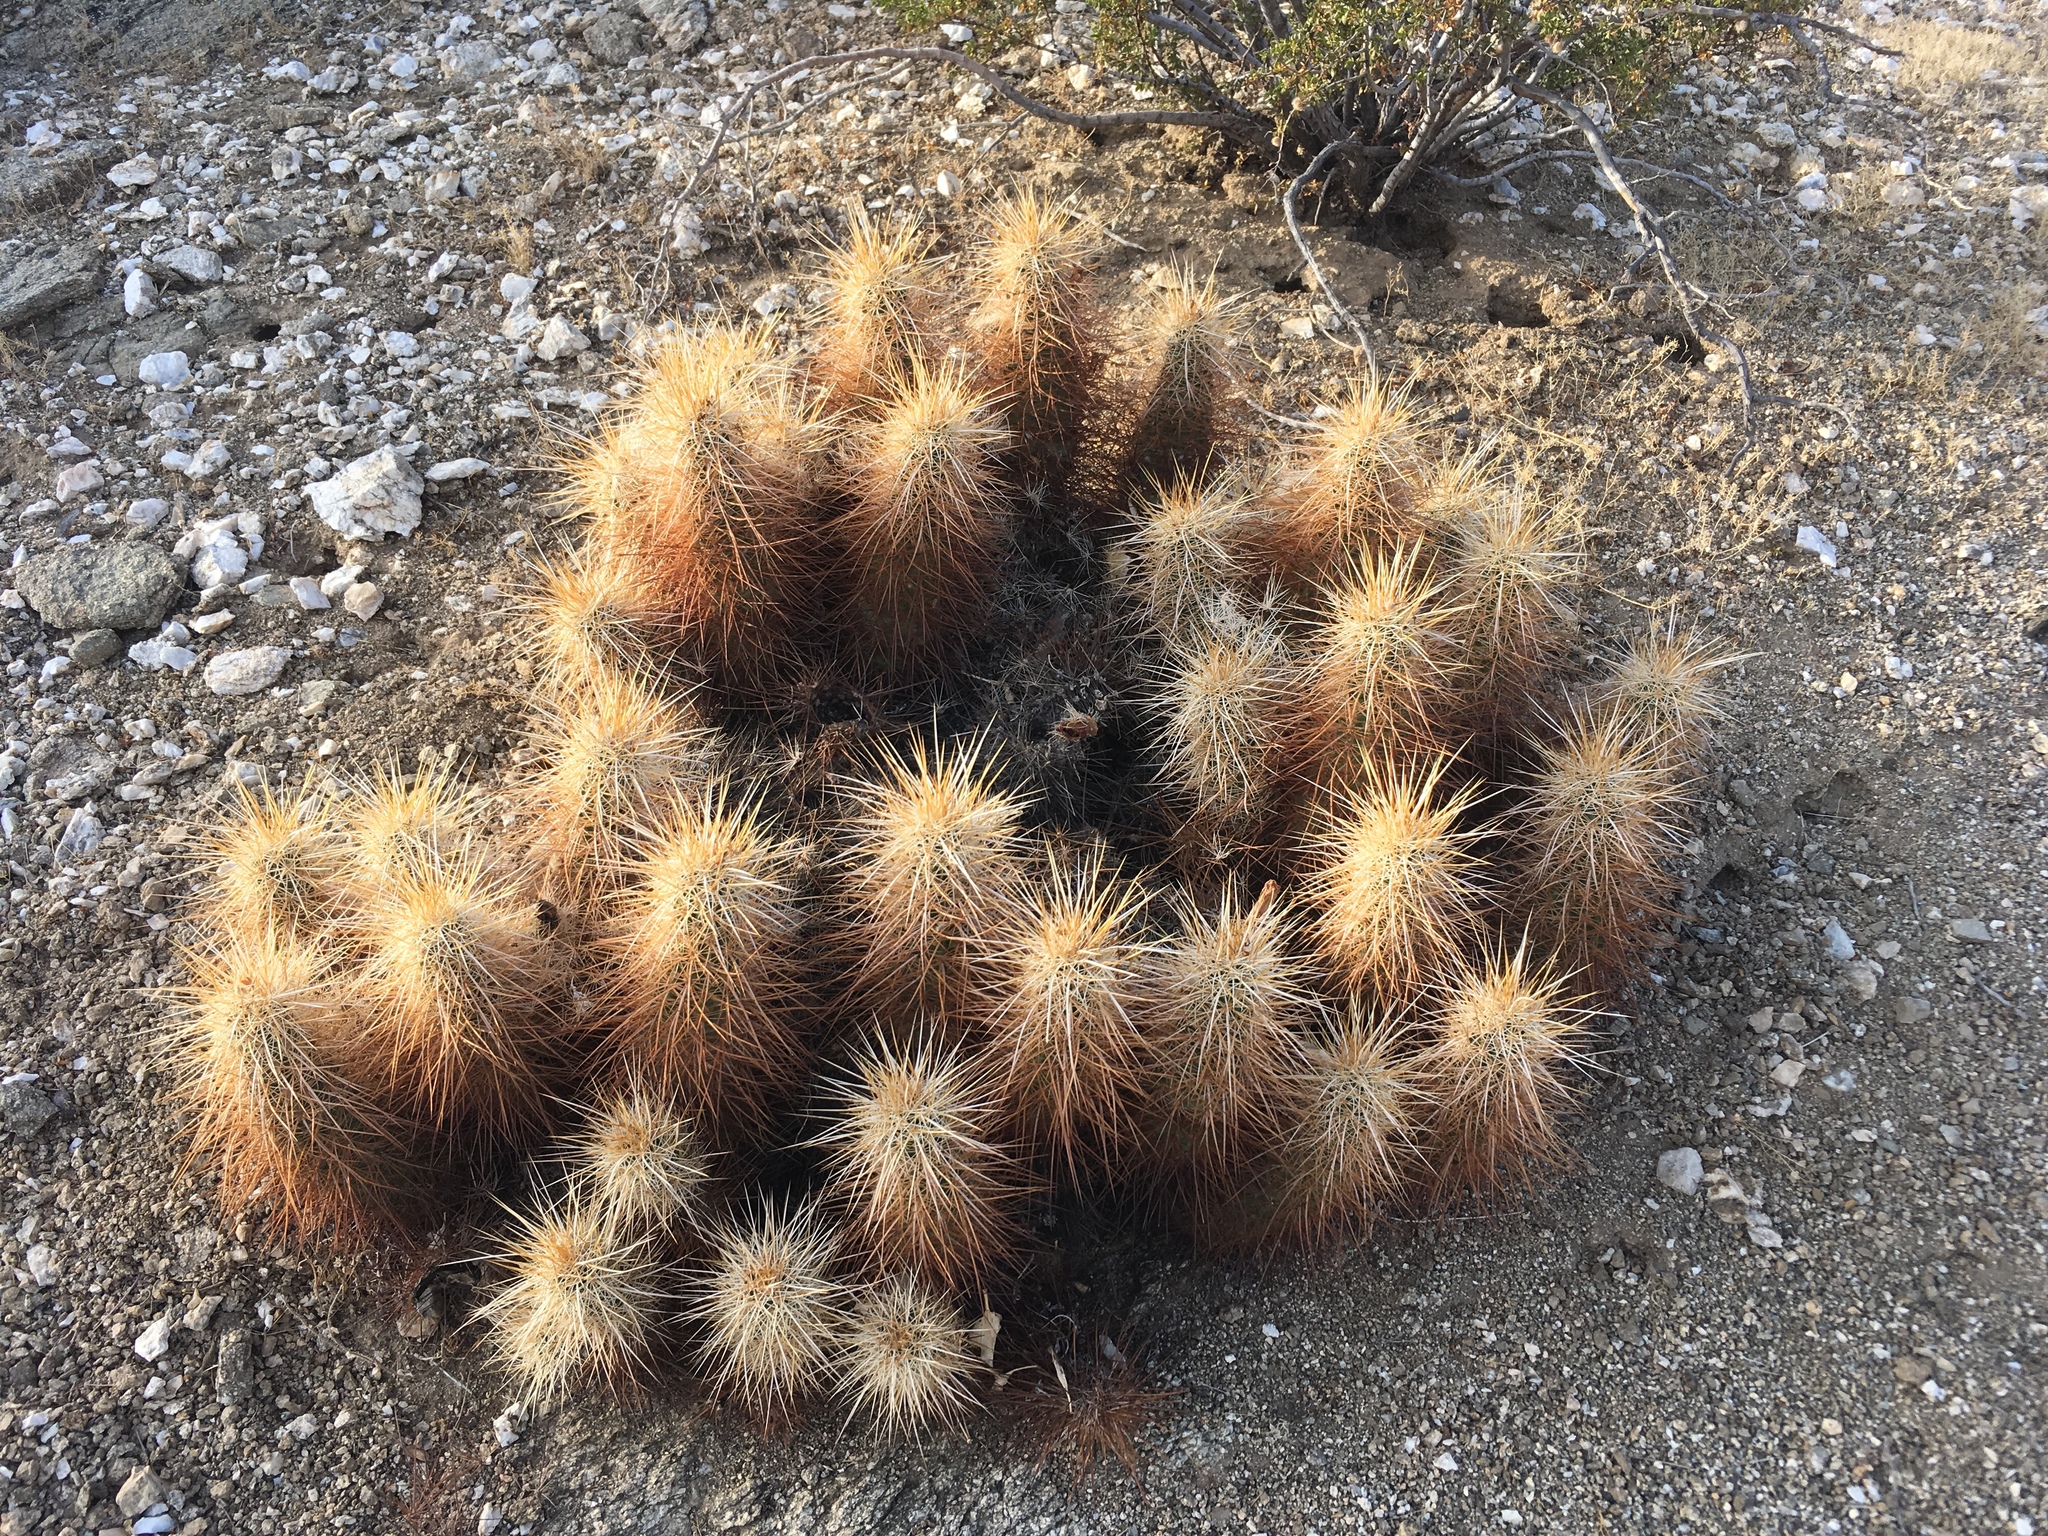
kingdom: Plantae
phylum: Tracheophyta
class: Magnoliopsida
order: Caryophyllales
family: Cactaceae
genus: Echinocereus
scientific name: Echinocereus engelmannii
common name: Engelmann's hedgehog cactus
